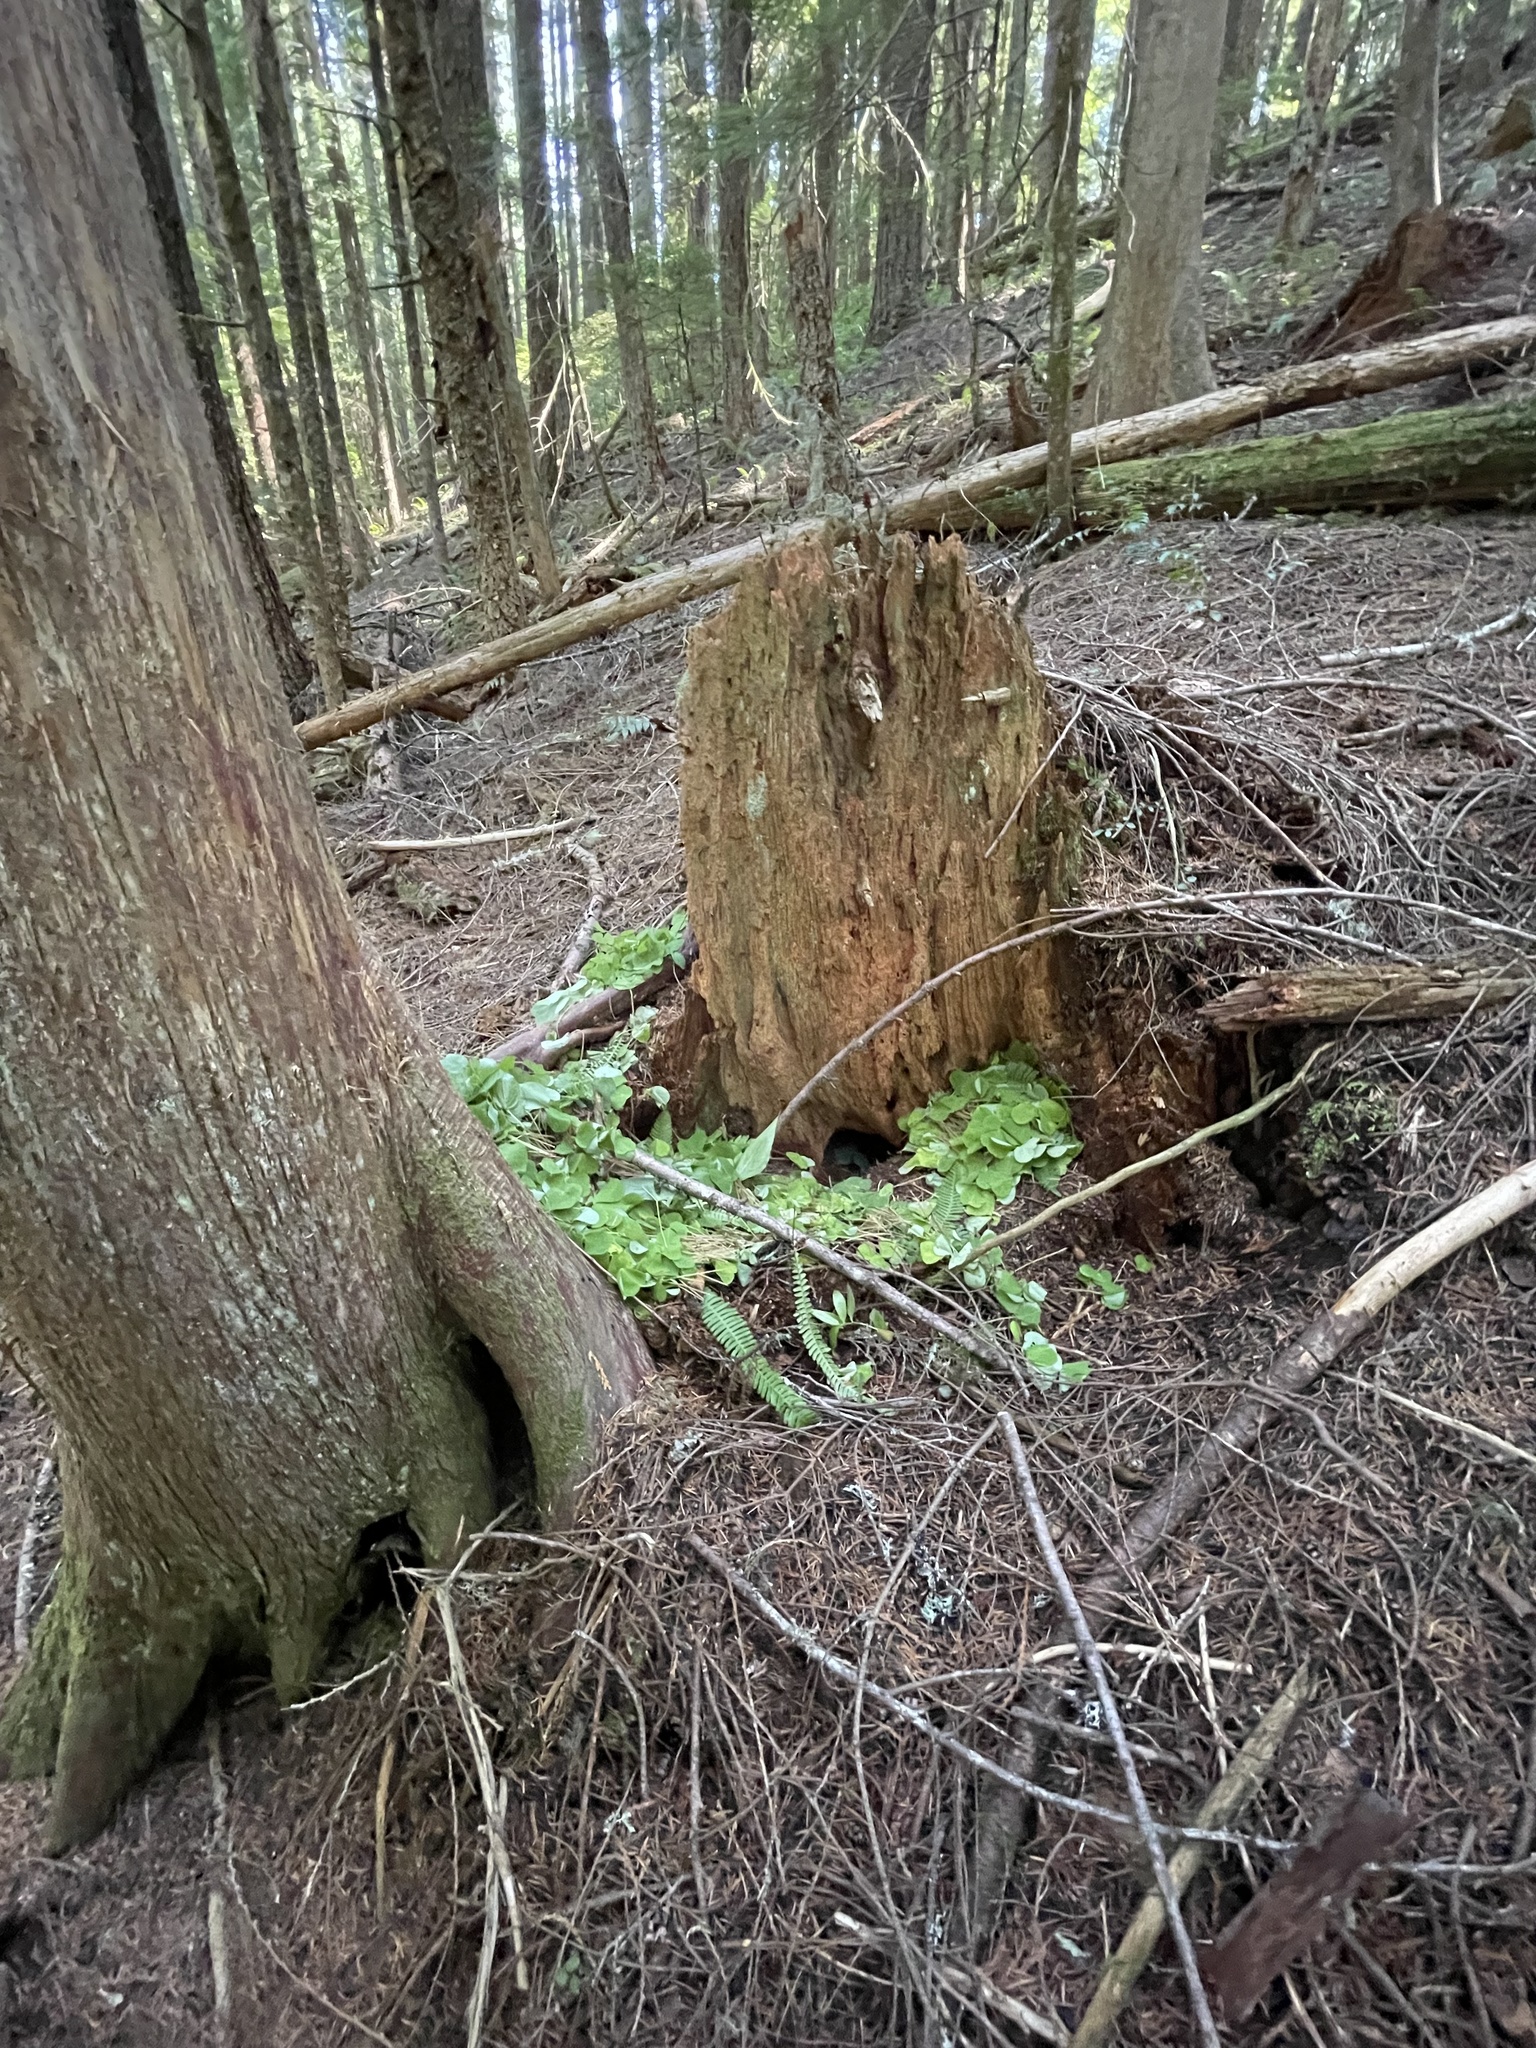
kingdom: Animalia
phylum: Chordata
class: Mammalia
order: Rodentia
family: Aplodontiidae
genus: Aplodontia
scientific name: Aplodontia rufa
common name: Mountain beaver
